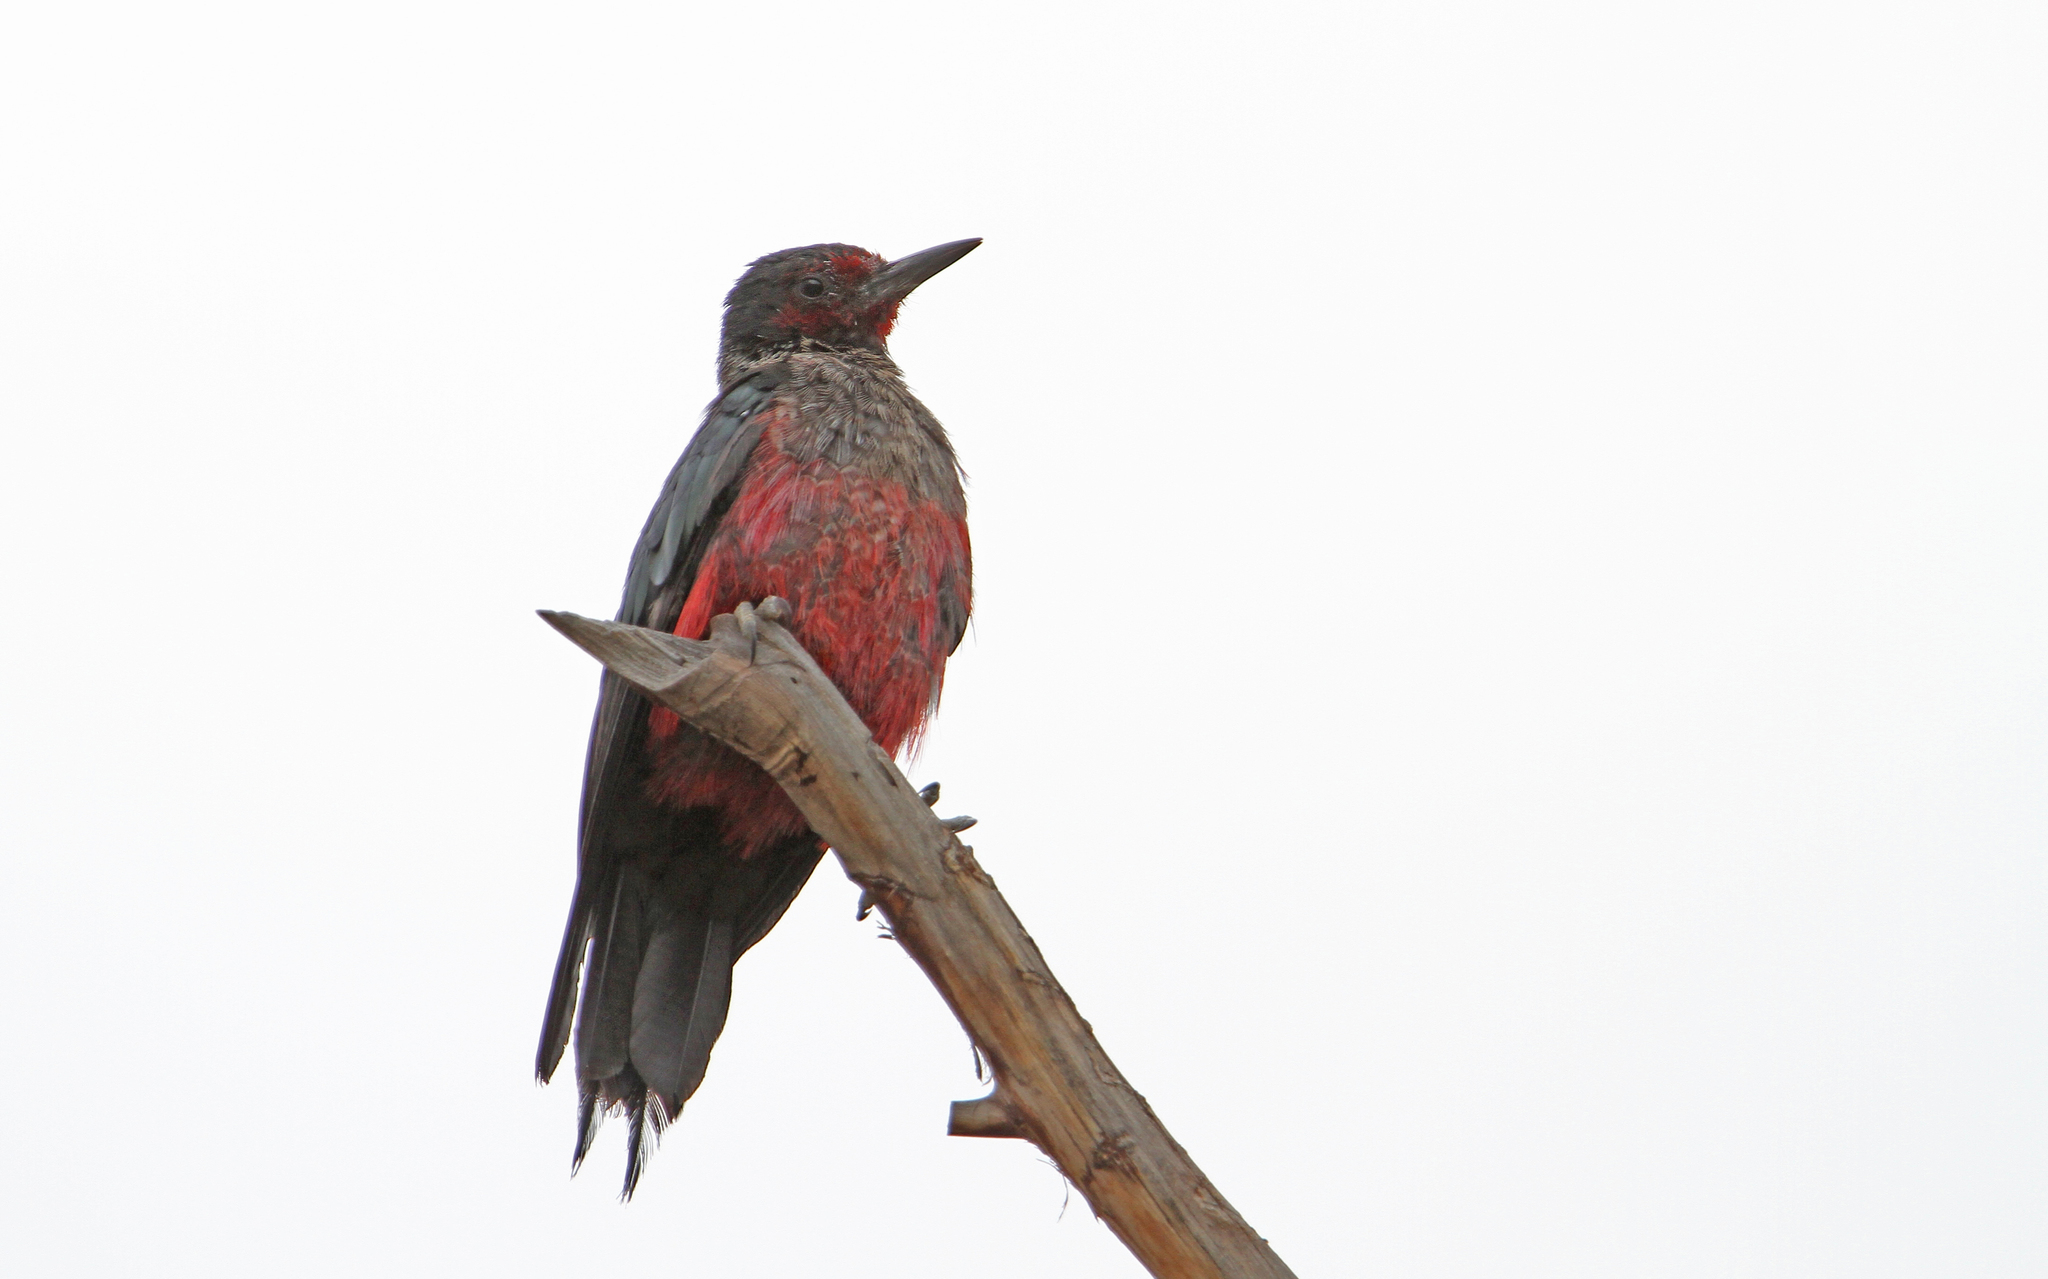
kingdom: Animalia
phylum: Chordata
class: Aves
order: Piciformes
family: Picidae
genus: Melanerpes
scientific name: Melanerpes lewis
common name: Lewis's woodpecker
